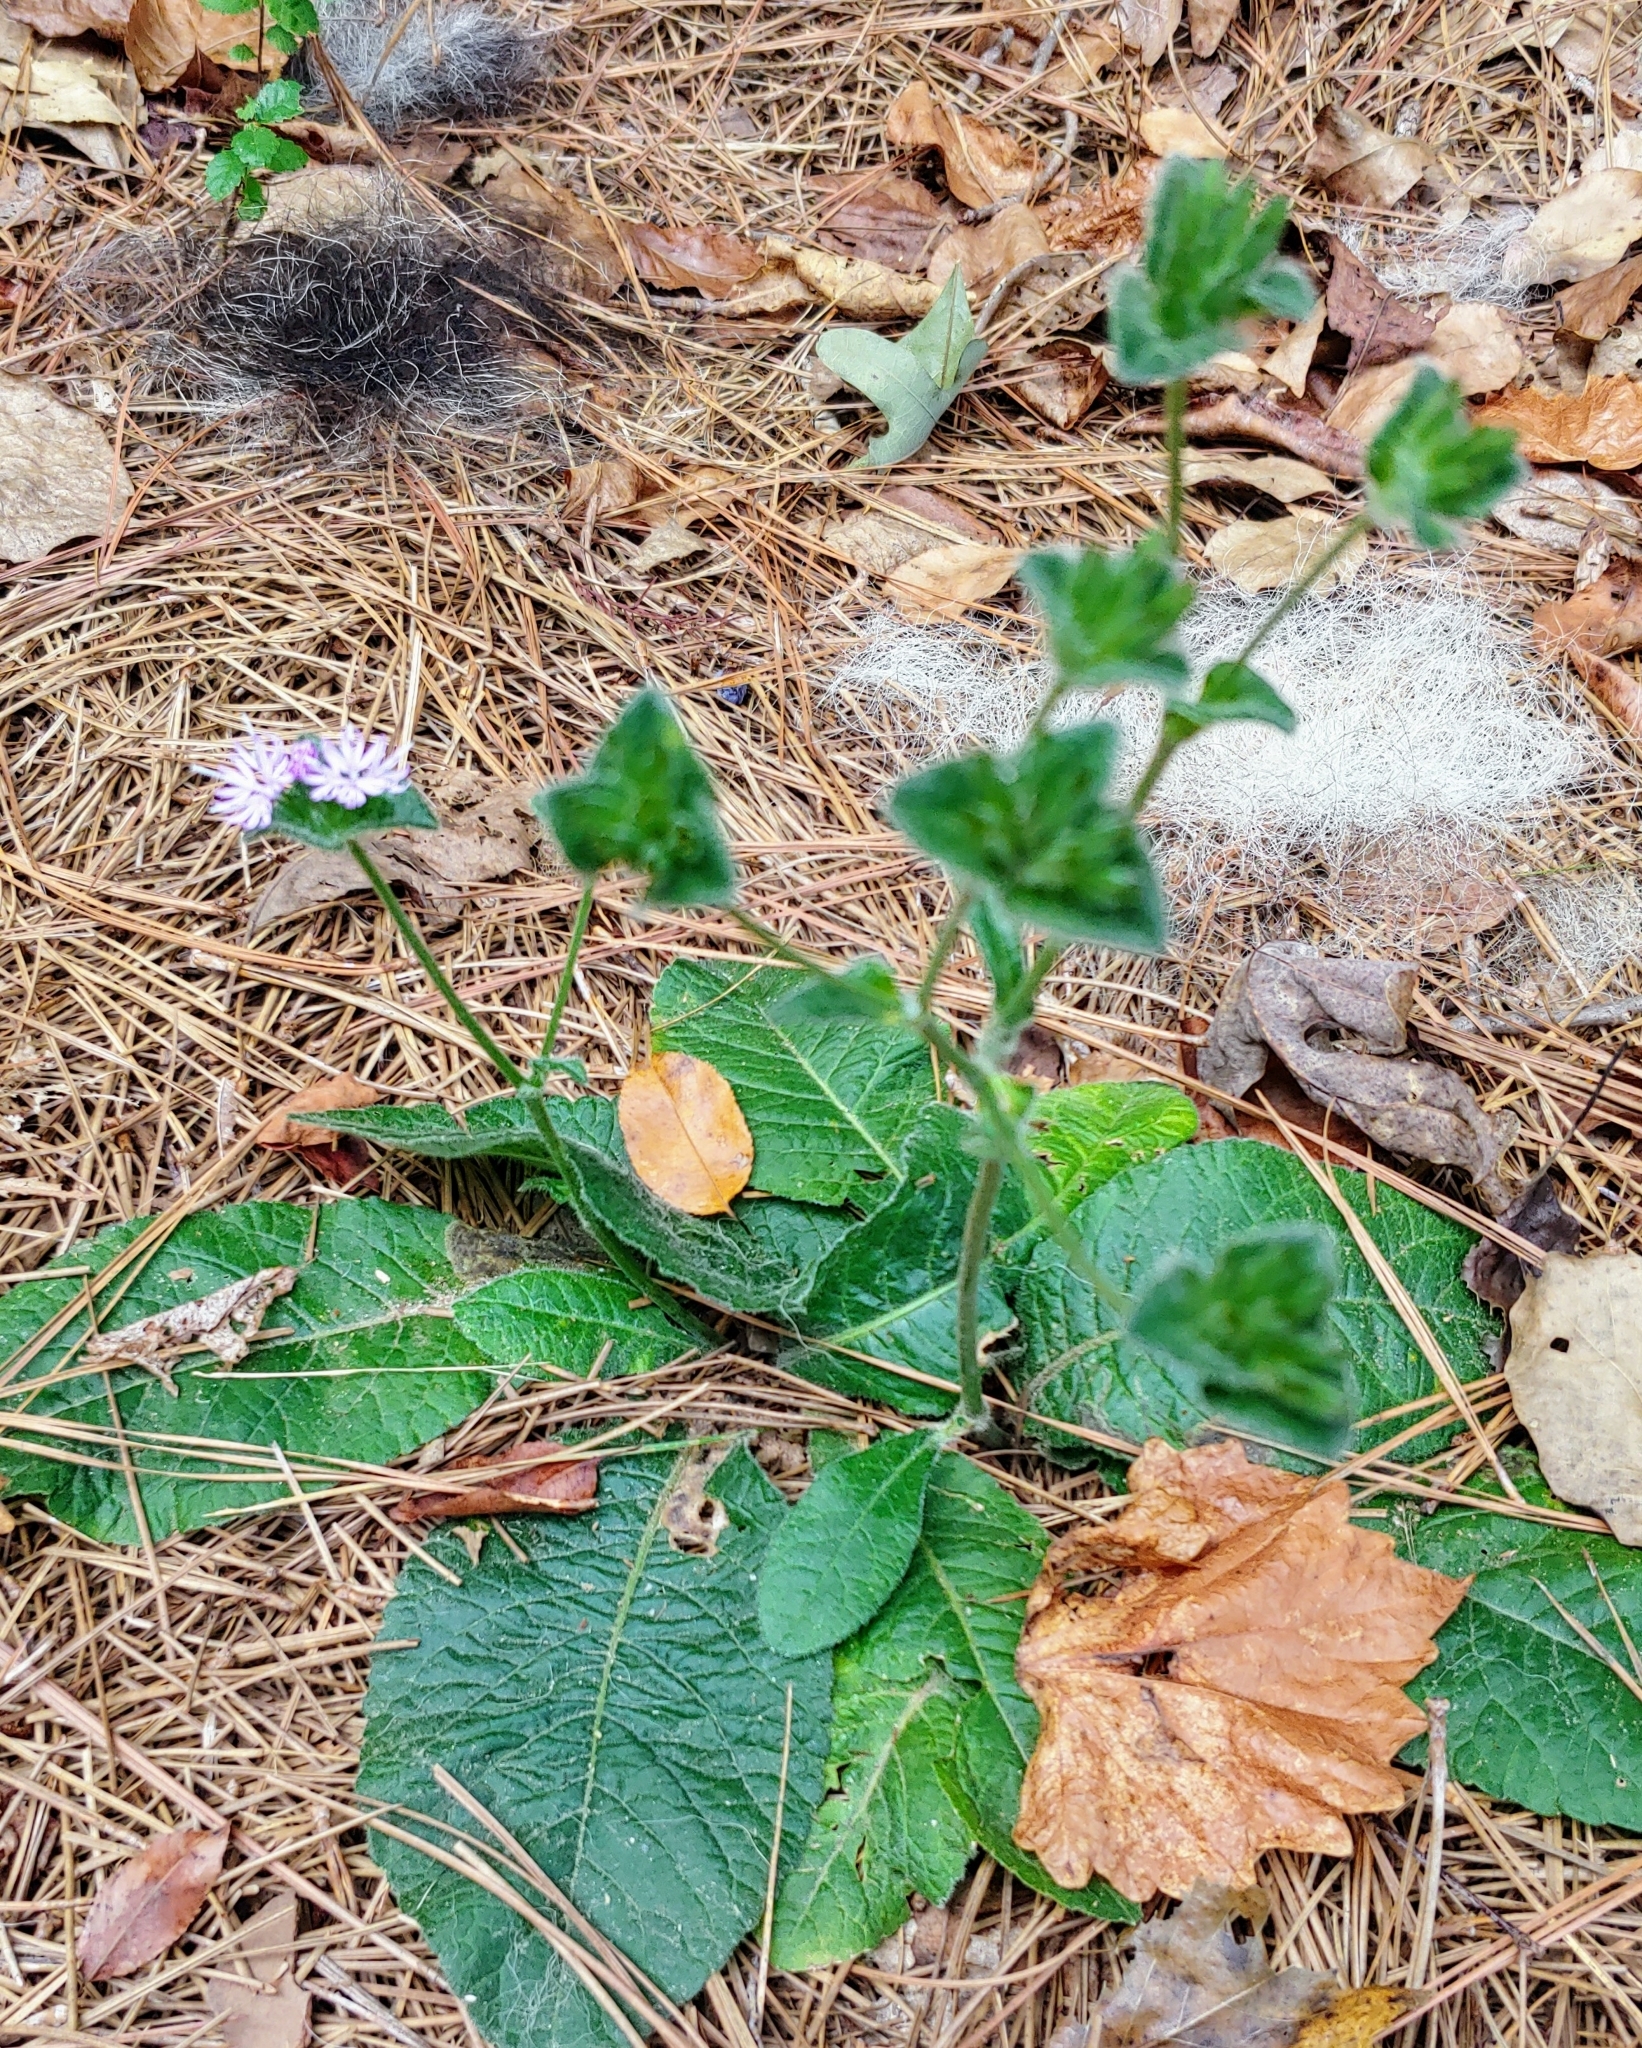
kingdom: Plantae
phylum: Tracheophyta
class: Magnoliopsida
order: Asterales
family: Asteraceae
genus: Elephantopus
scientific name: Elephantopus tomentosus
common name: Tobacco-weed
